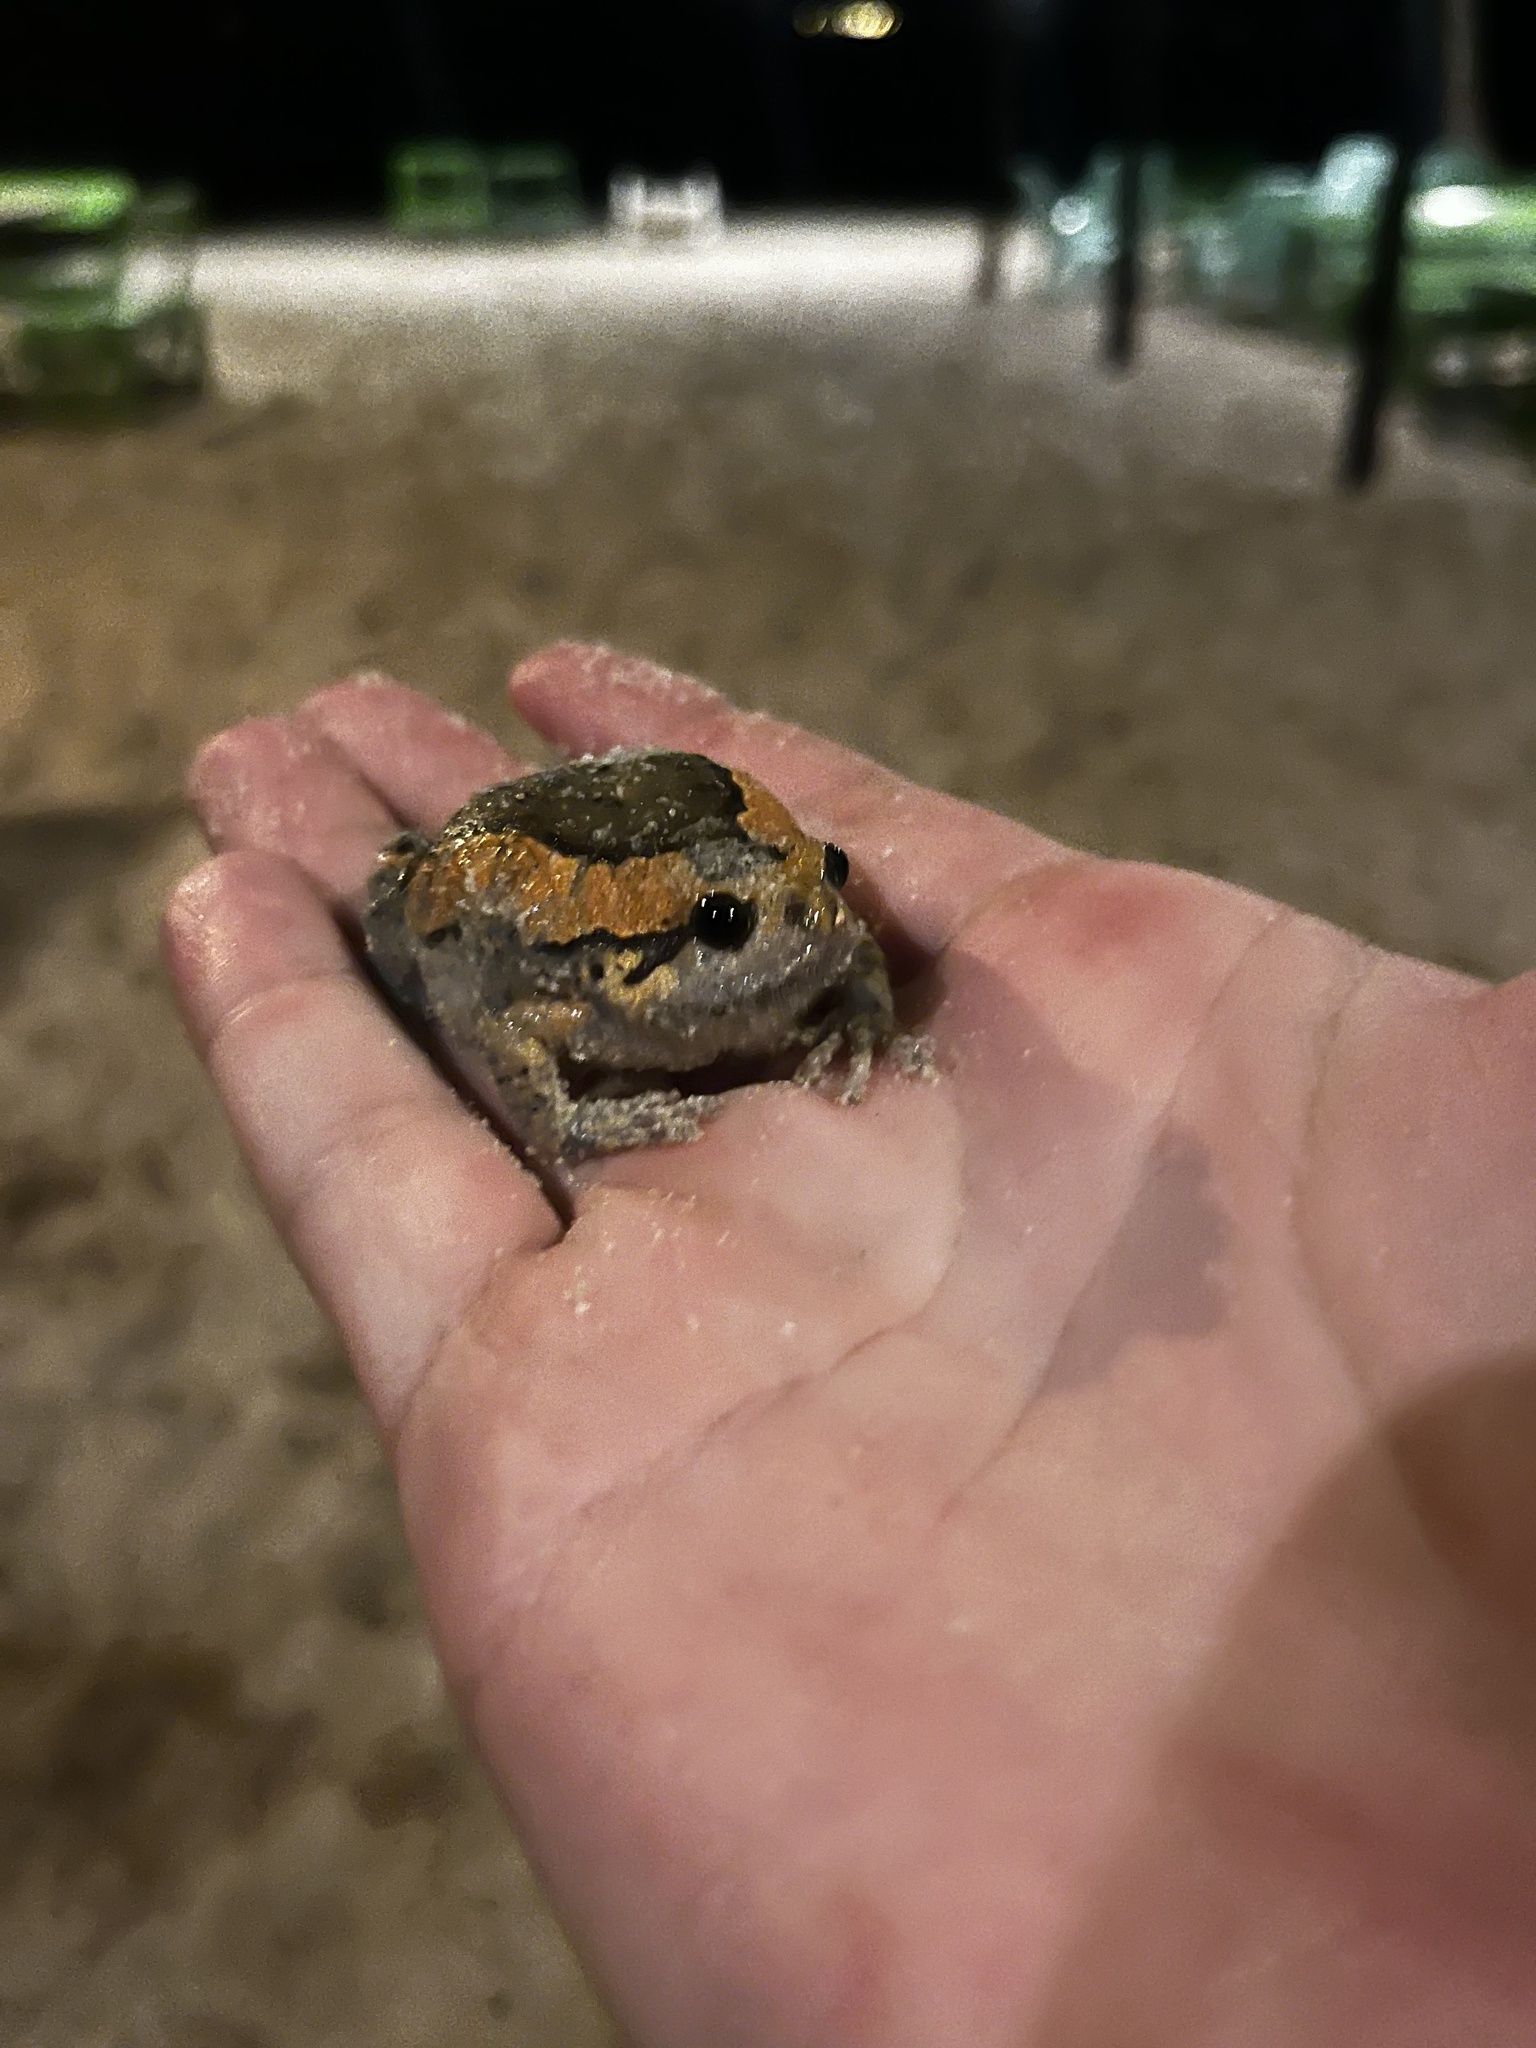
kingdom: Animalia
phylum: Chordata
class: Amphibia
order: Anura
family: Microhylidae
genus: Kaloula
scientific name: Kaloula pulchra
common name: Common,banded bullfrog
